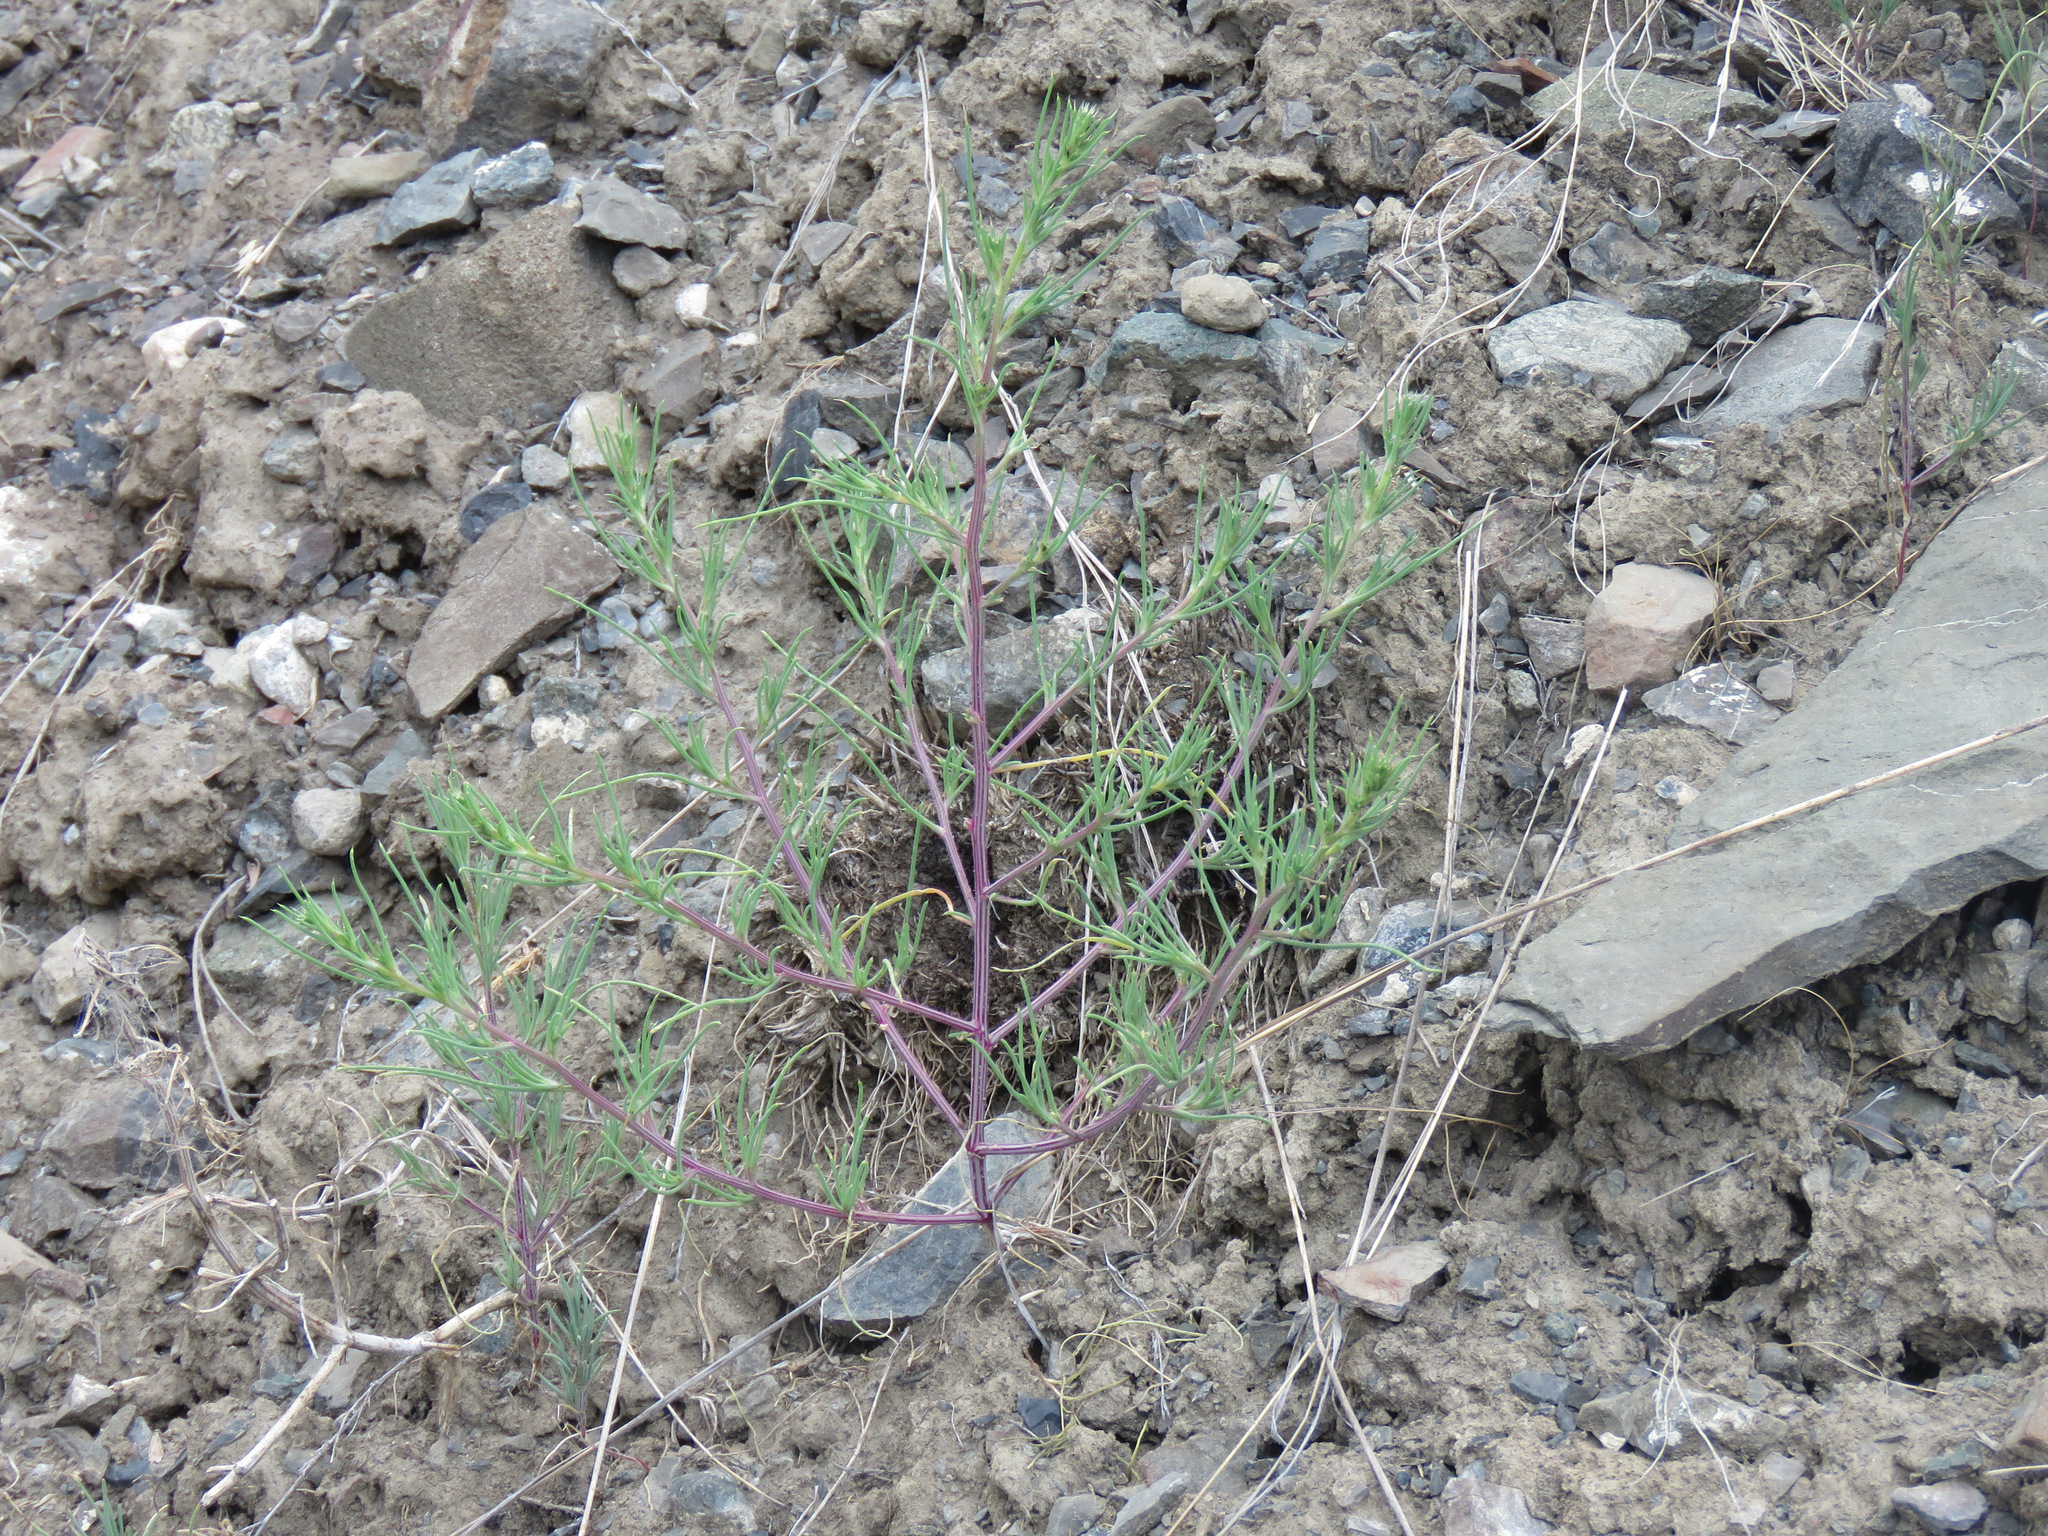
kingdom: Plantae
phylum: Tracheophyta
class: Magnoliopsida
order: Caryophyllales
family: Amaranthaceae
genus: Salsola
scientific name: Salsola tragus
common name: Prickly russian thistle
